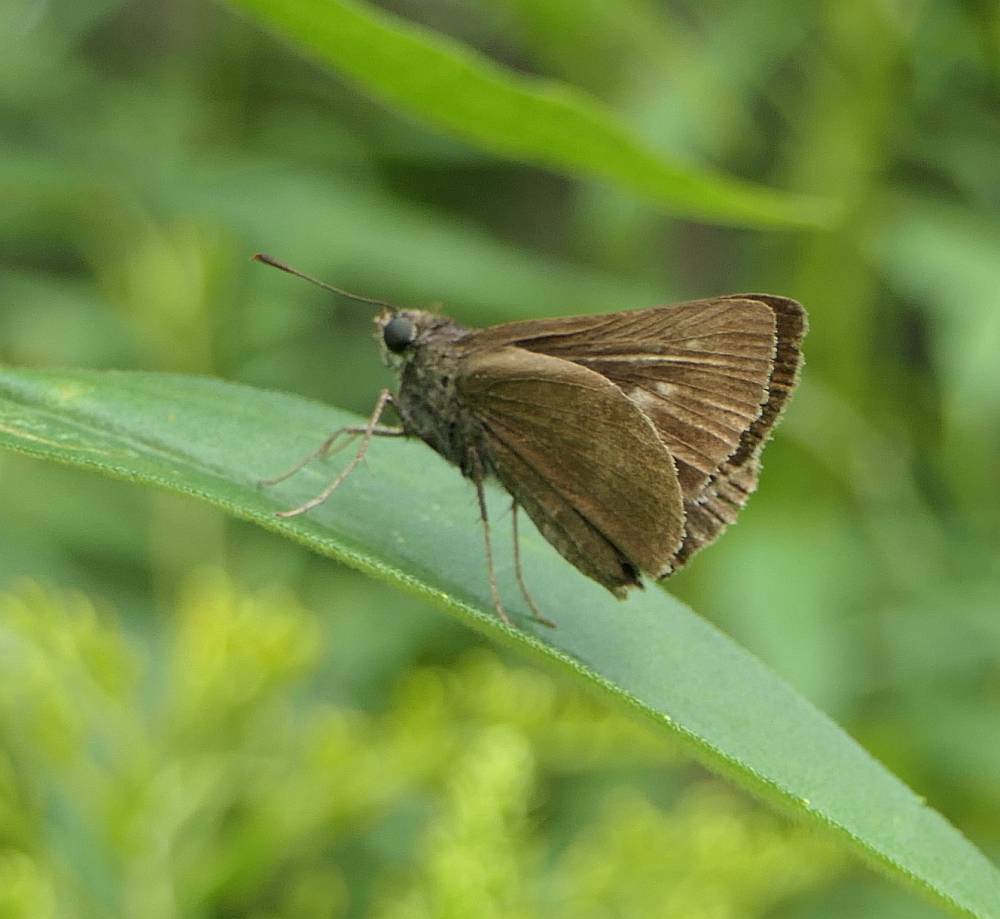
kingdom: Animalia
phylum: Arthropoda
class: Insecta
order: Lepidoptera
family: Hesperiidae
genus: Euphyes
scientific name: Euphyes vestris
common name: Dun skipper
